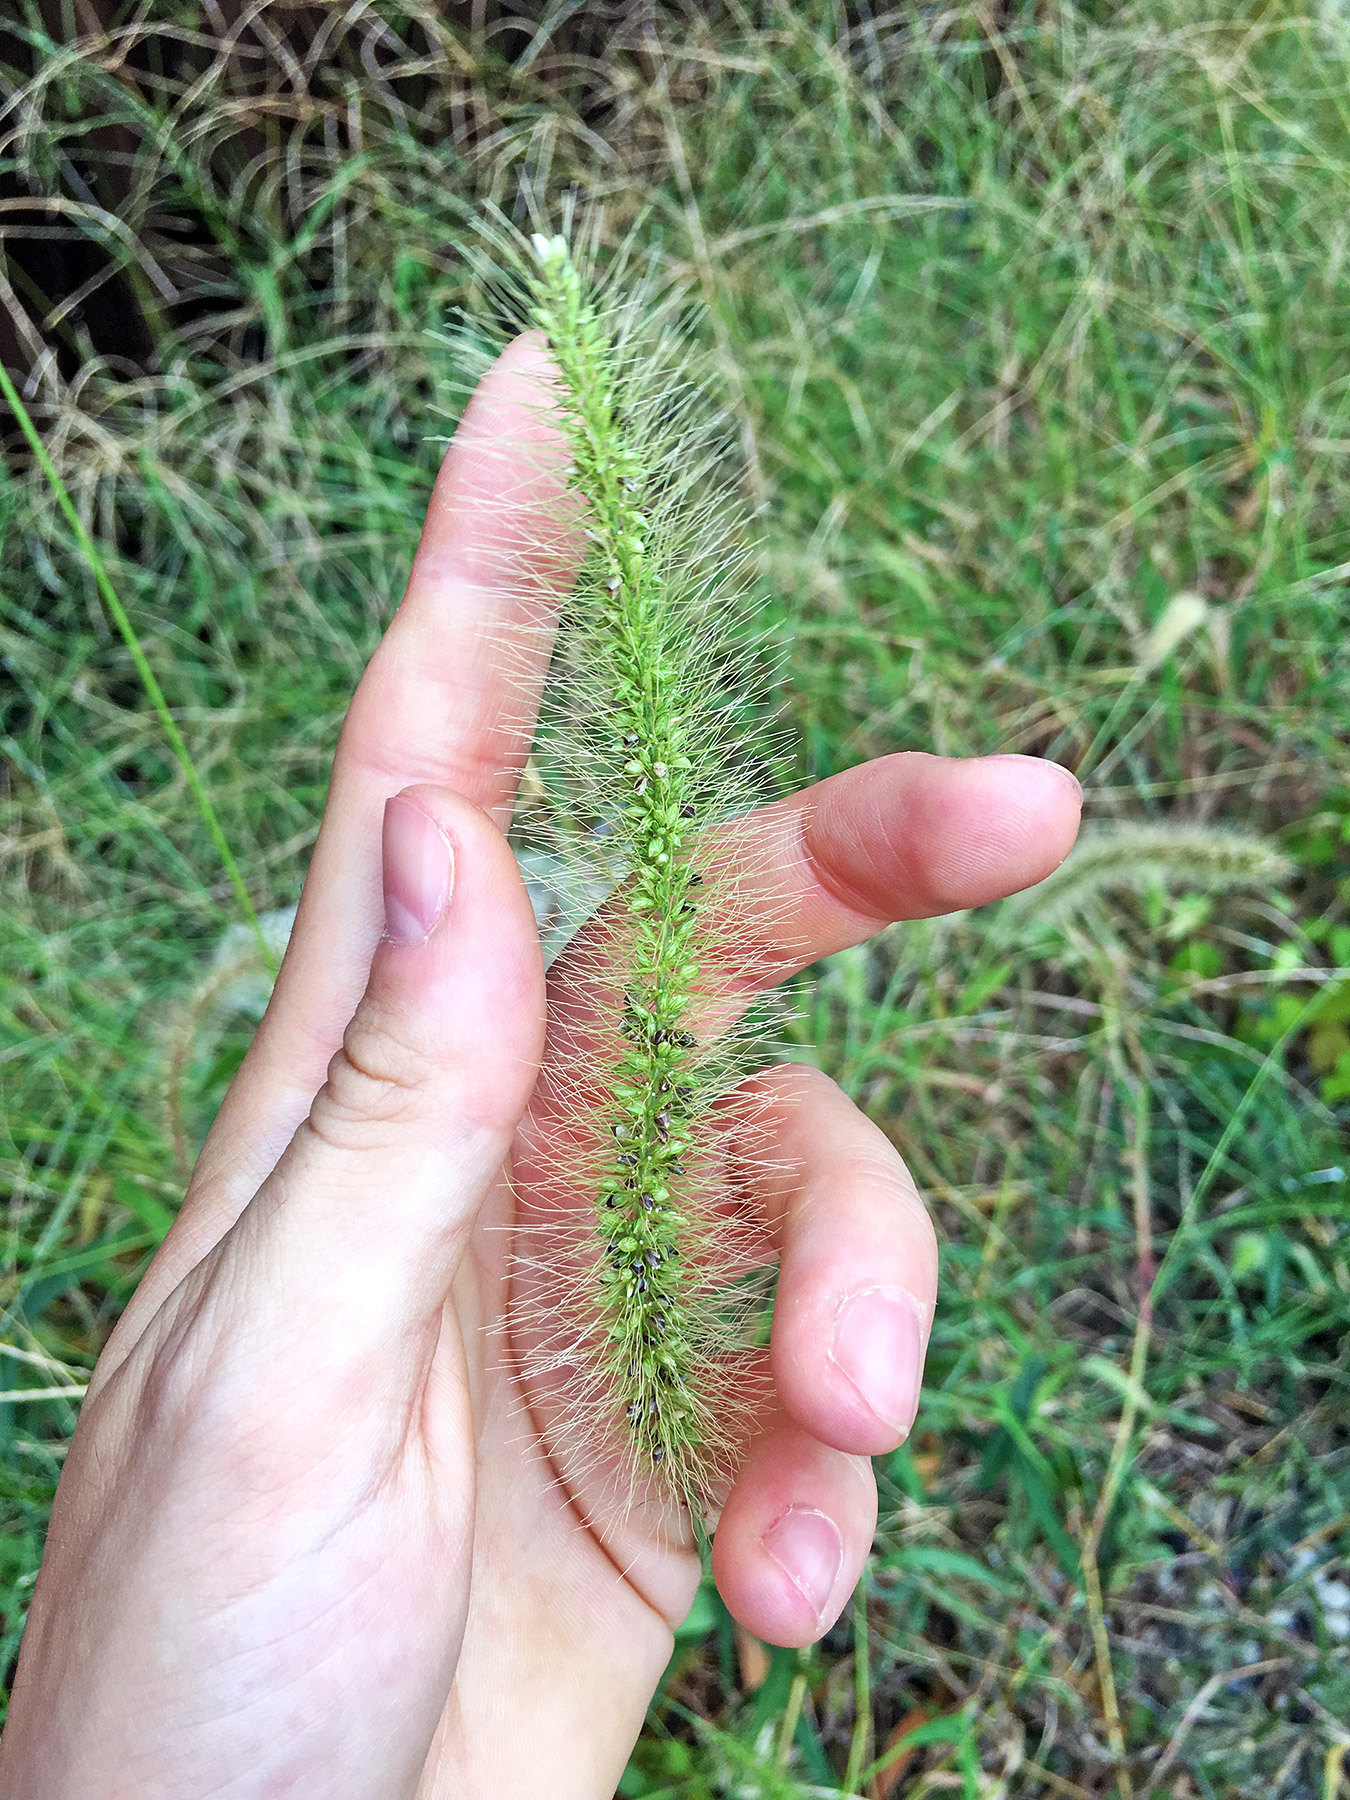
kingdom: Plantae
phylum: Tracheophyta
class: Liliopsida
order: Poales
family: Poaceae
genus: Setaria
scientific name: Setaria faberi
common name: Nodding bristle-grass
